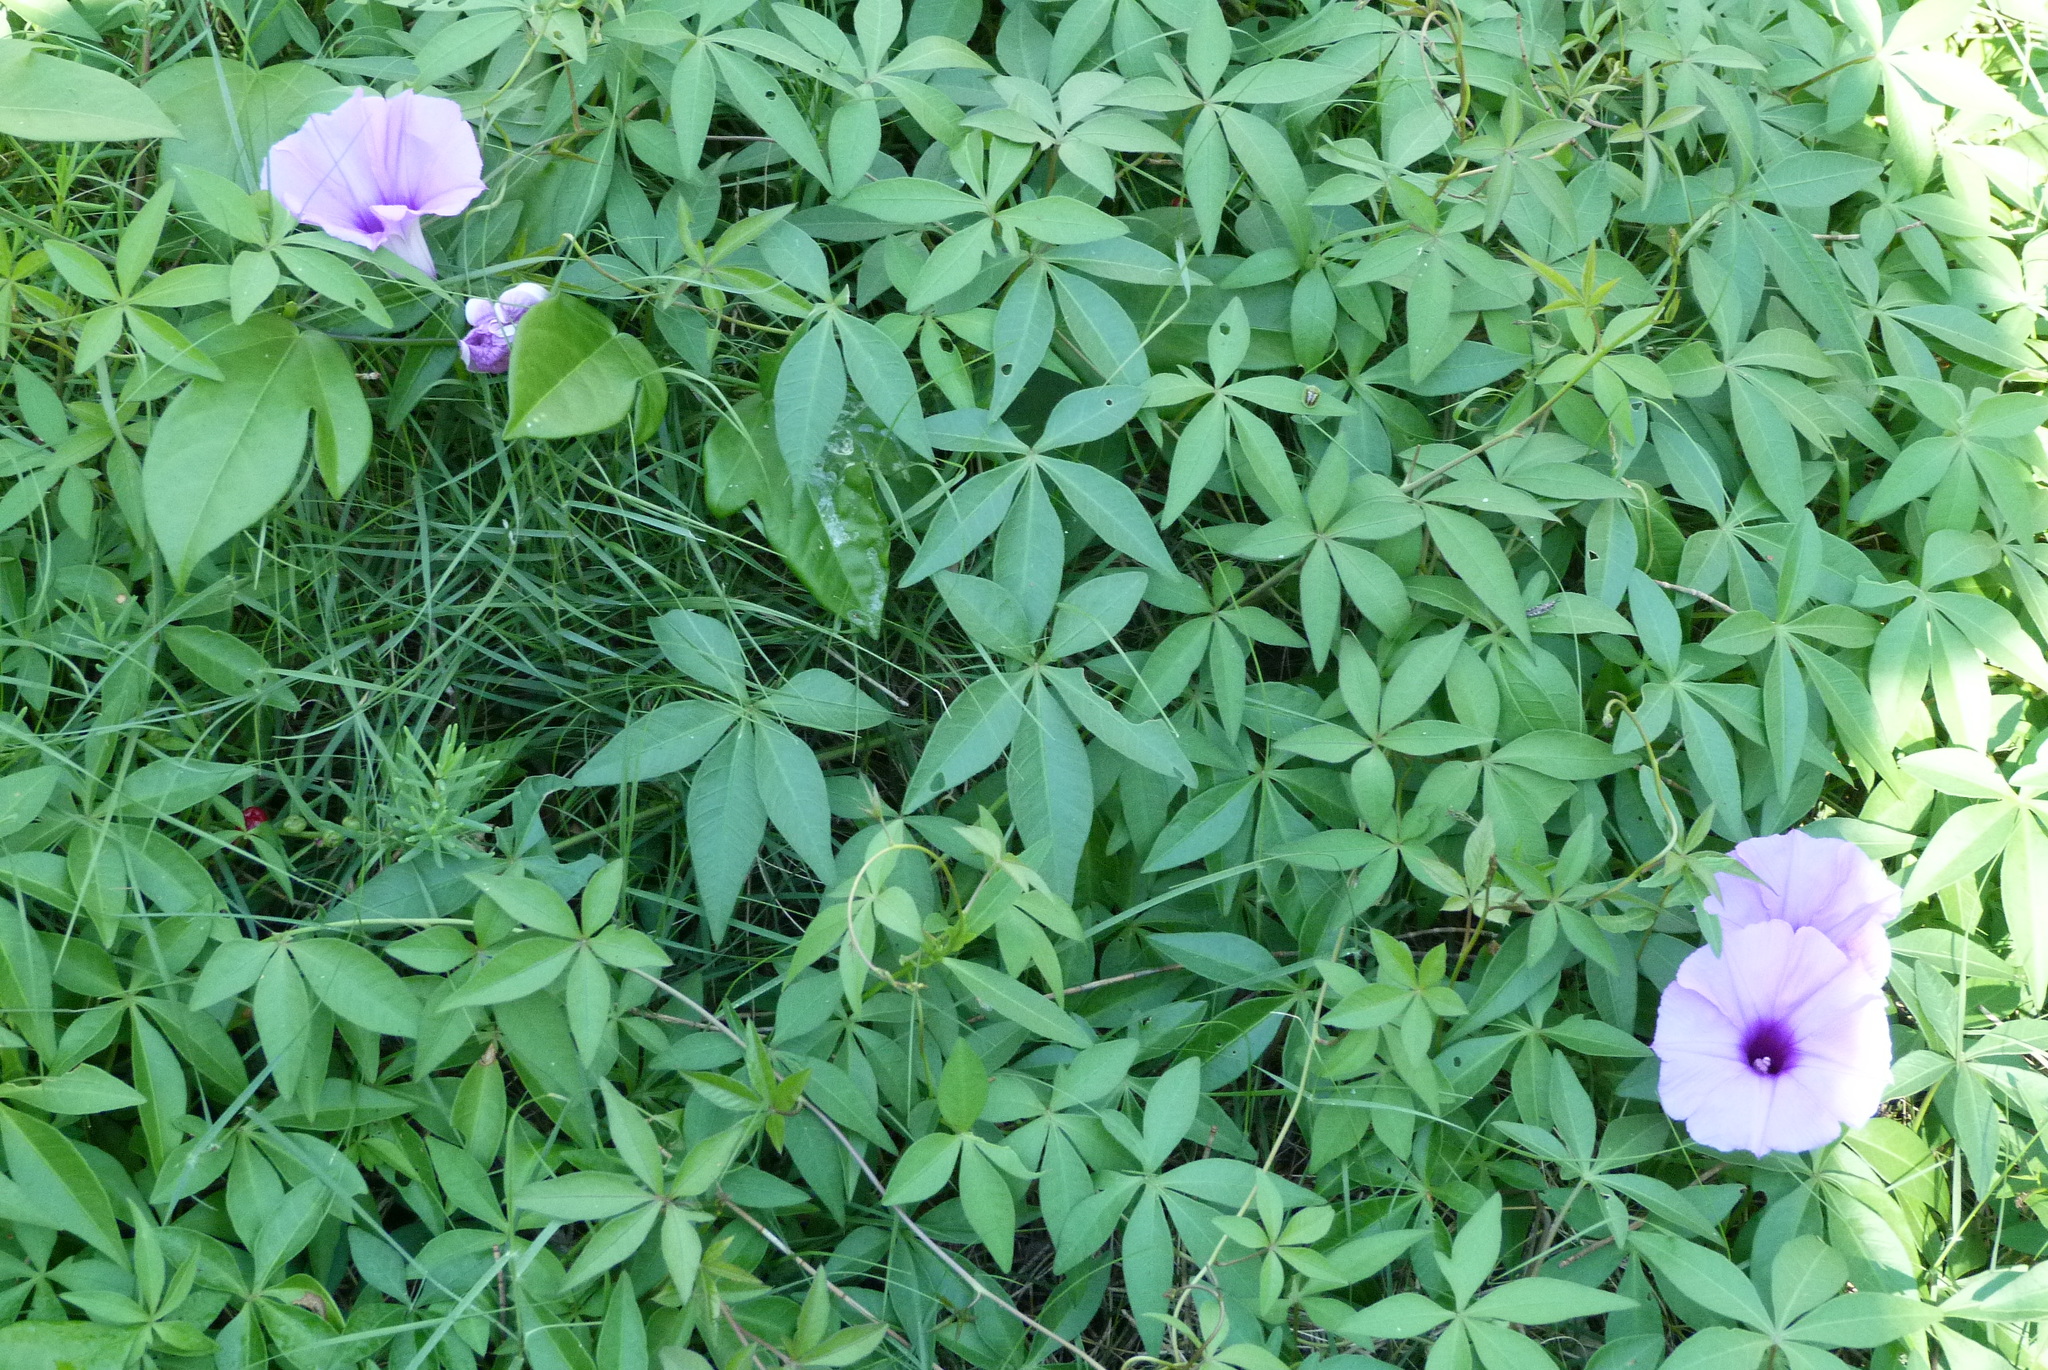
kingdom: Plantae
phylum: Tracheophyta
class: Magnoliopsida
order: Solanales
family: Convolvulaceae
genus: Ipomoea
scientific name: Ipomoea cairica
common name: Mile a minute vine
